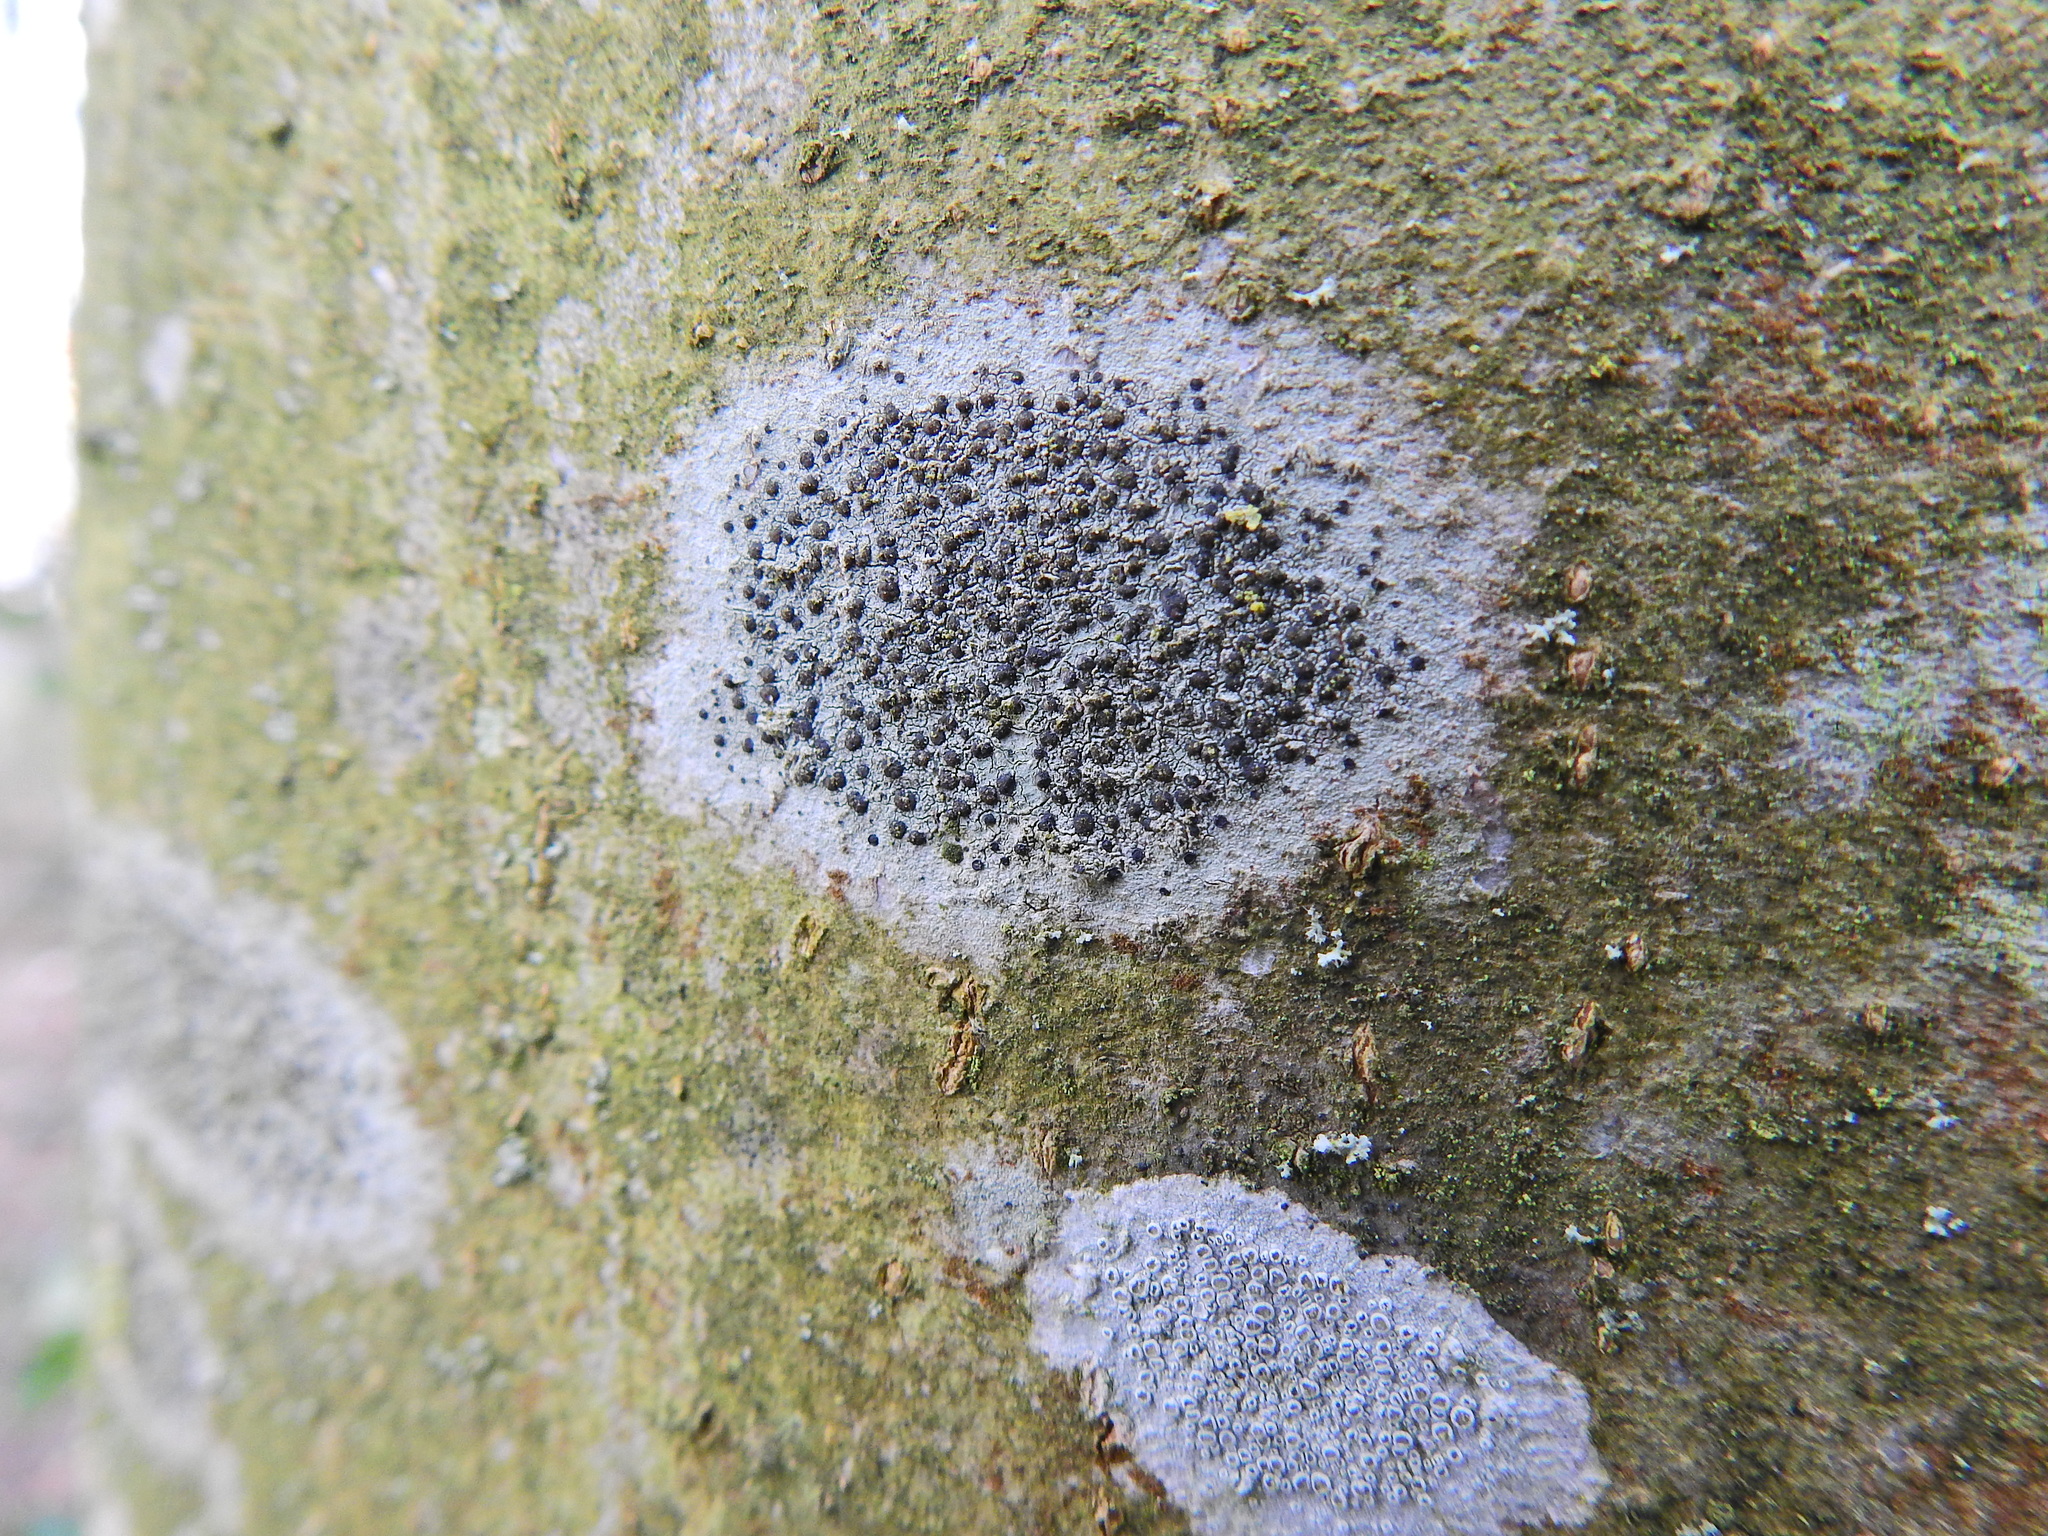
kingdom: Fungi
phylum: Ascomycota
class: Lecanoromycetes
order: Lecanorales
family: Lecanoraceae
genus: Lecidella
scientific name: Lecidella elaeochroma
